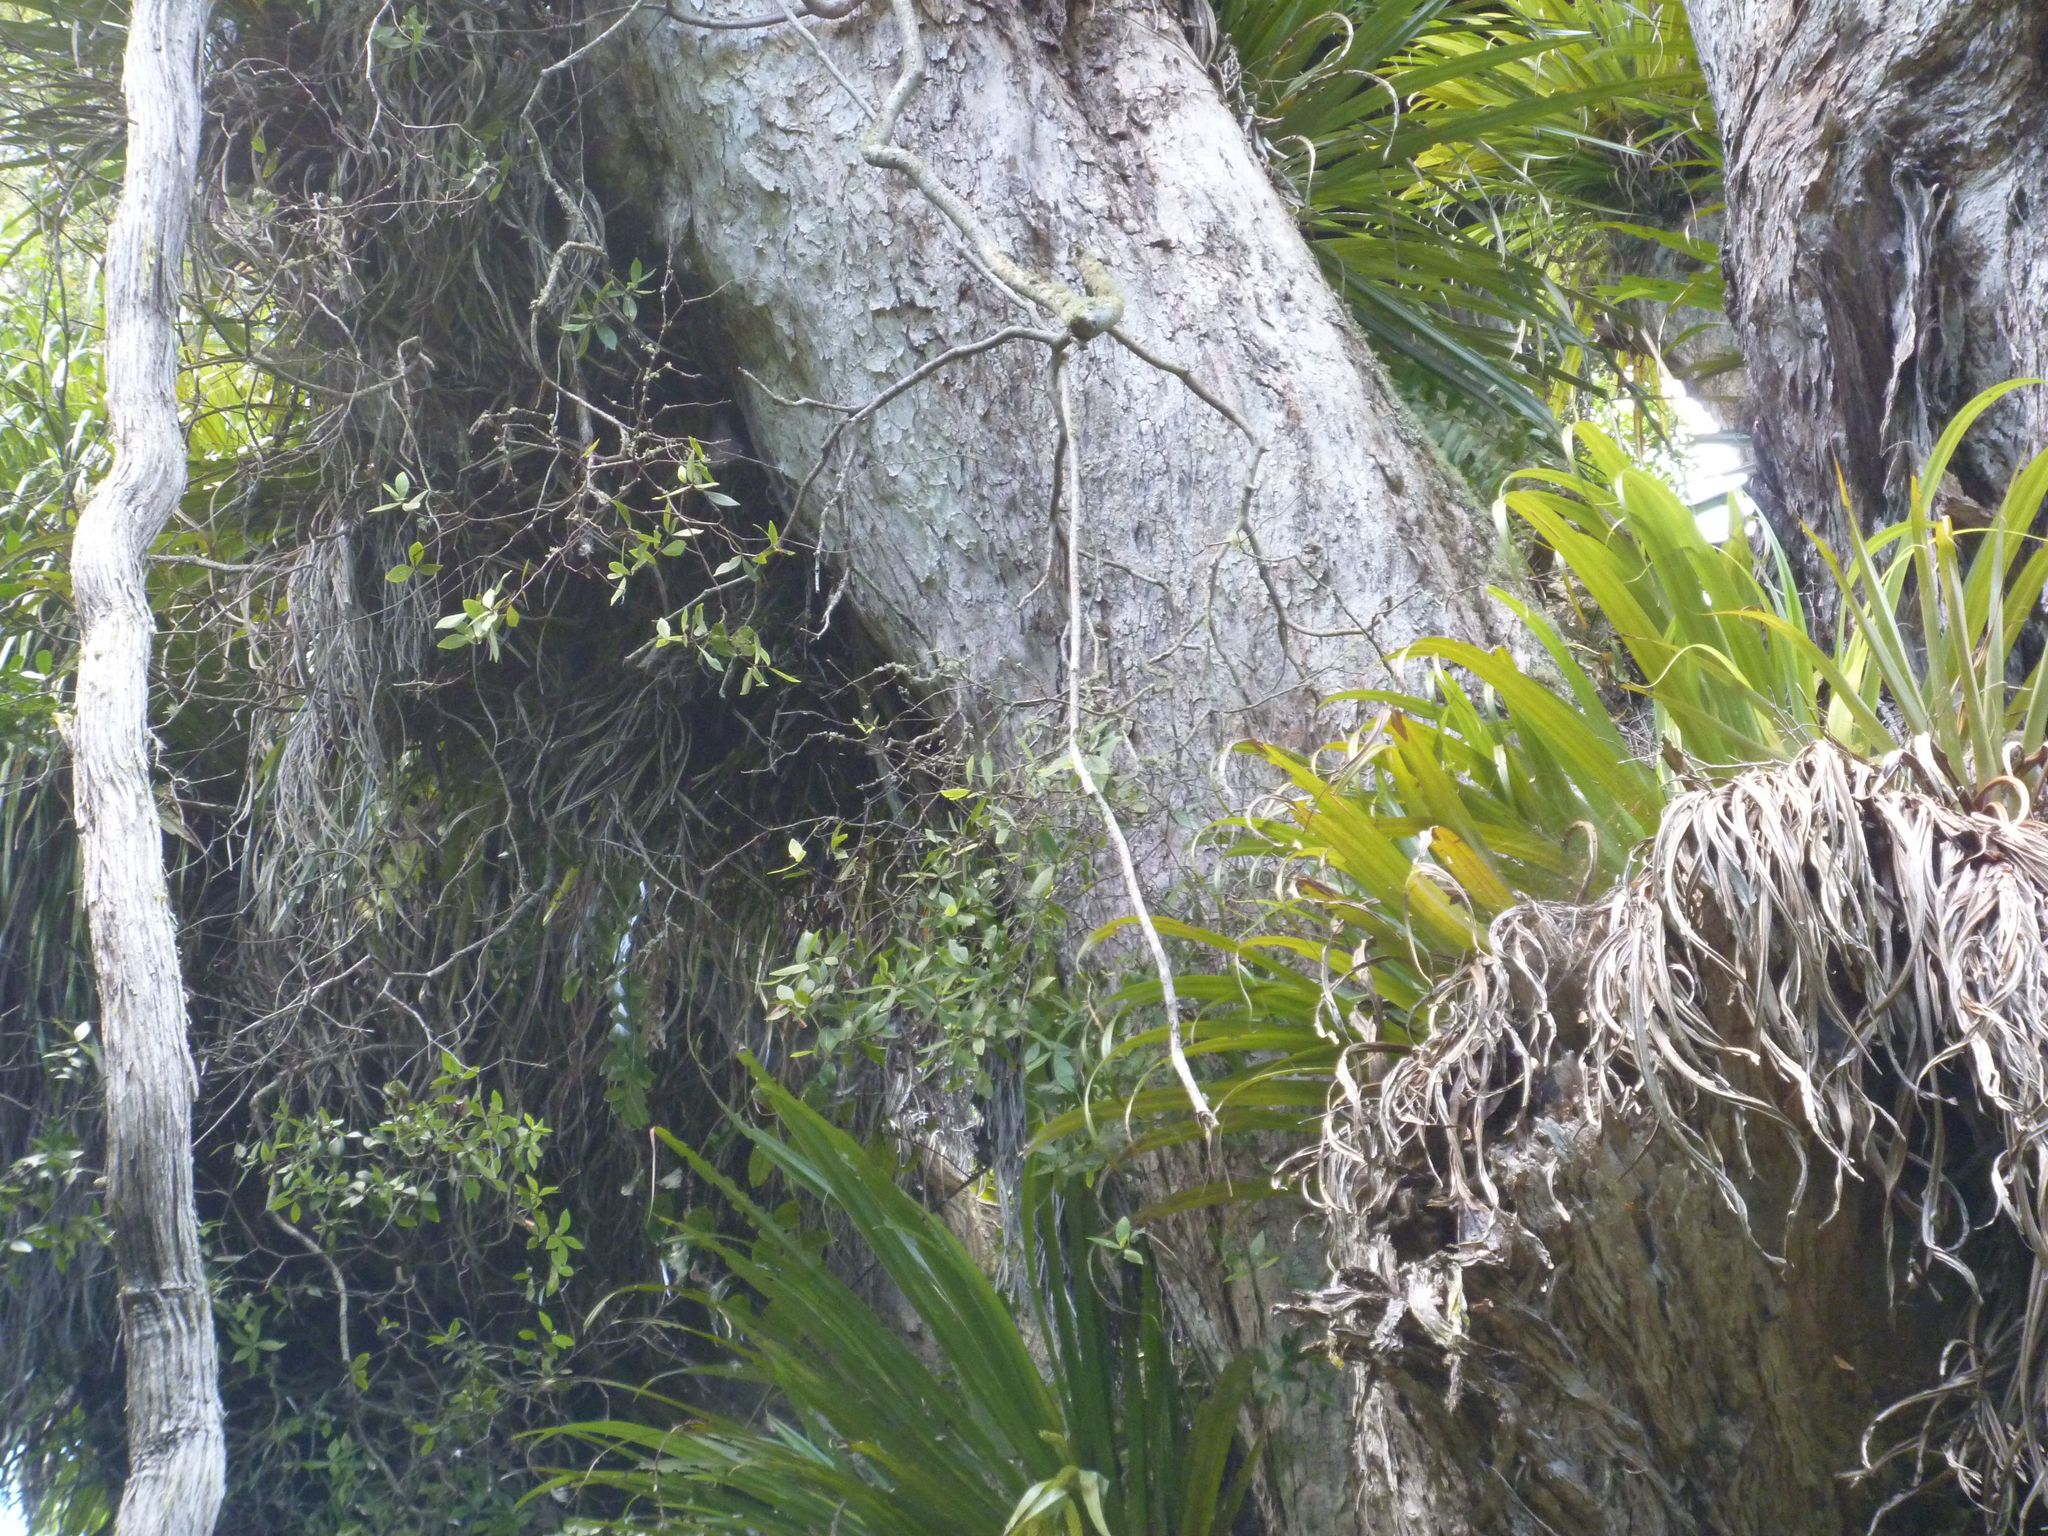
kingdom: Plantae
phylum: Tracheophyta
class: Magnoliopsida
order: Apiales
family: Pittosporaceae
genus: Pittosporum
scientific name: Pittosporum cornifolium
